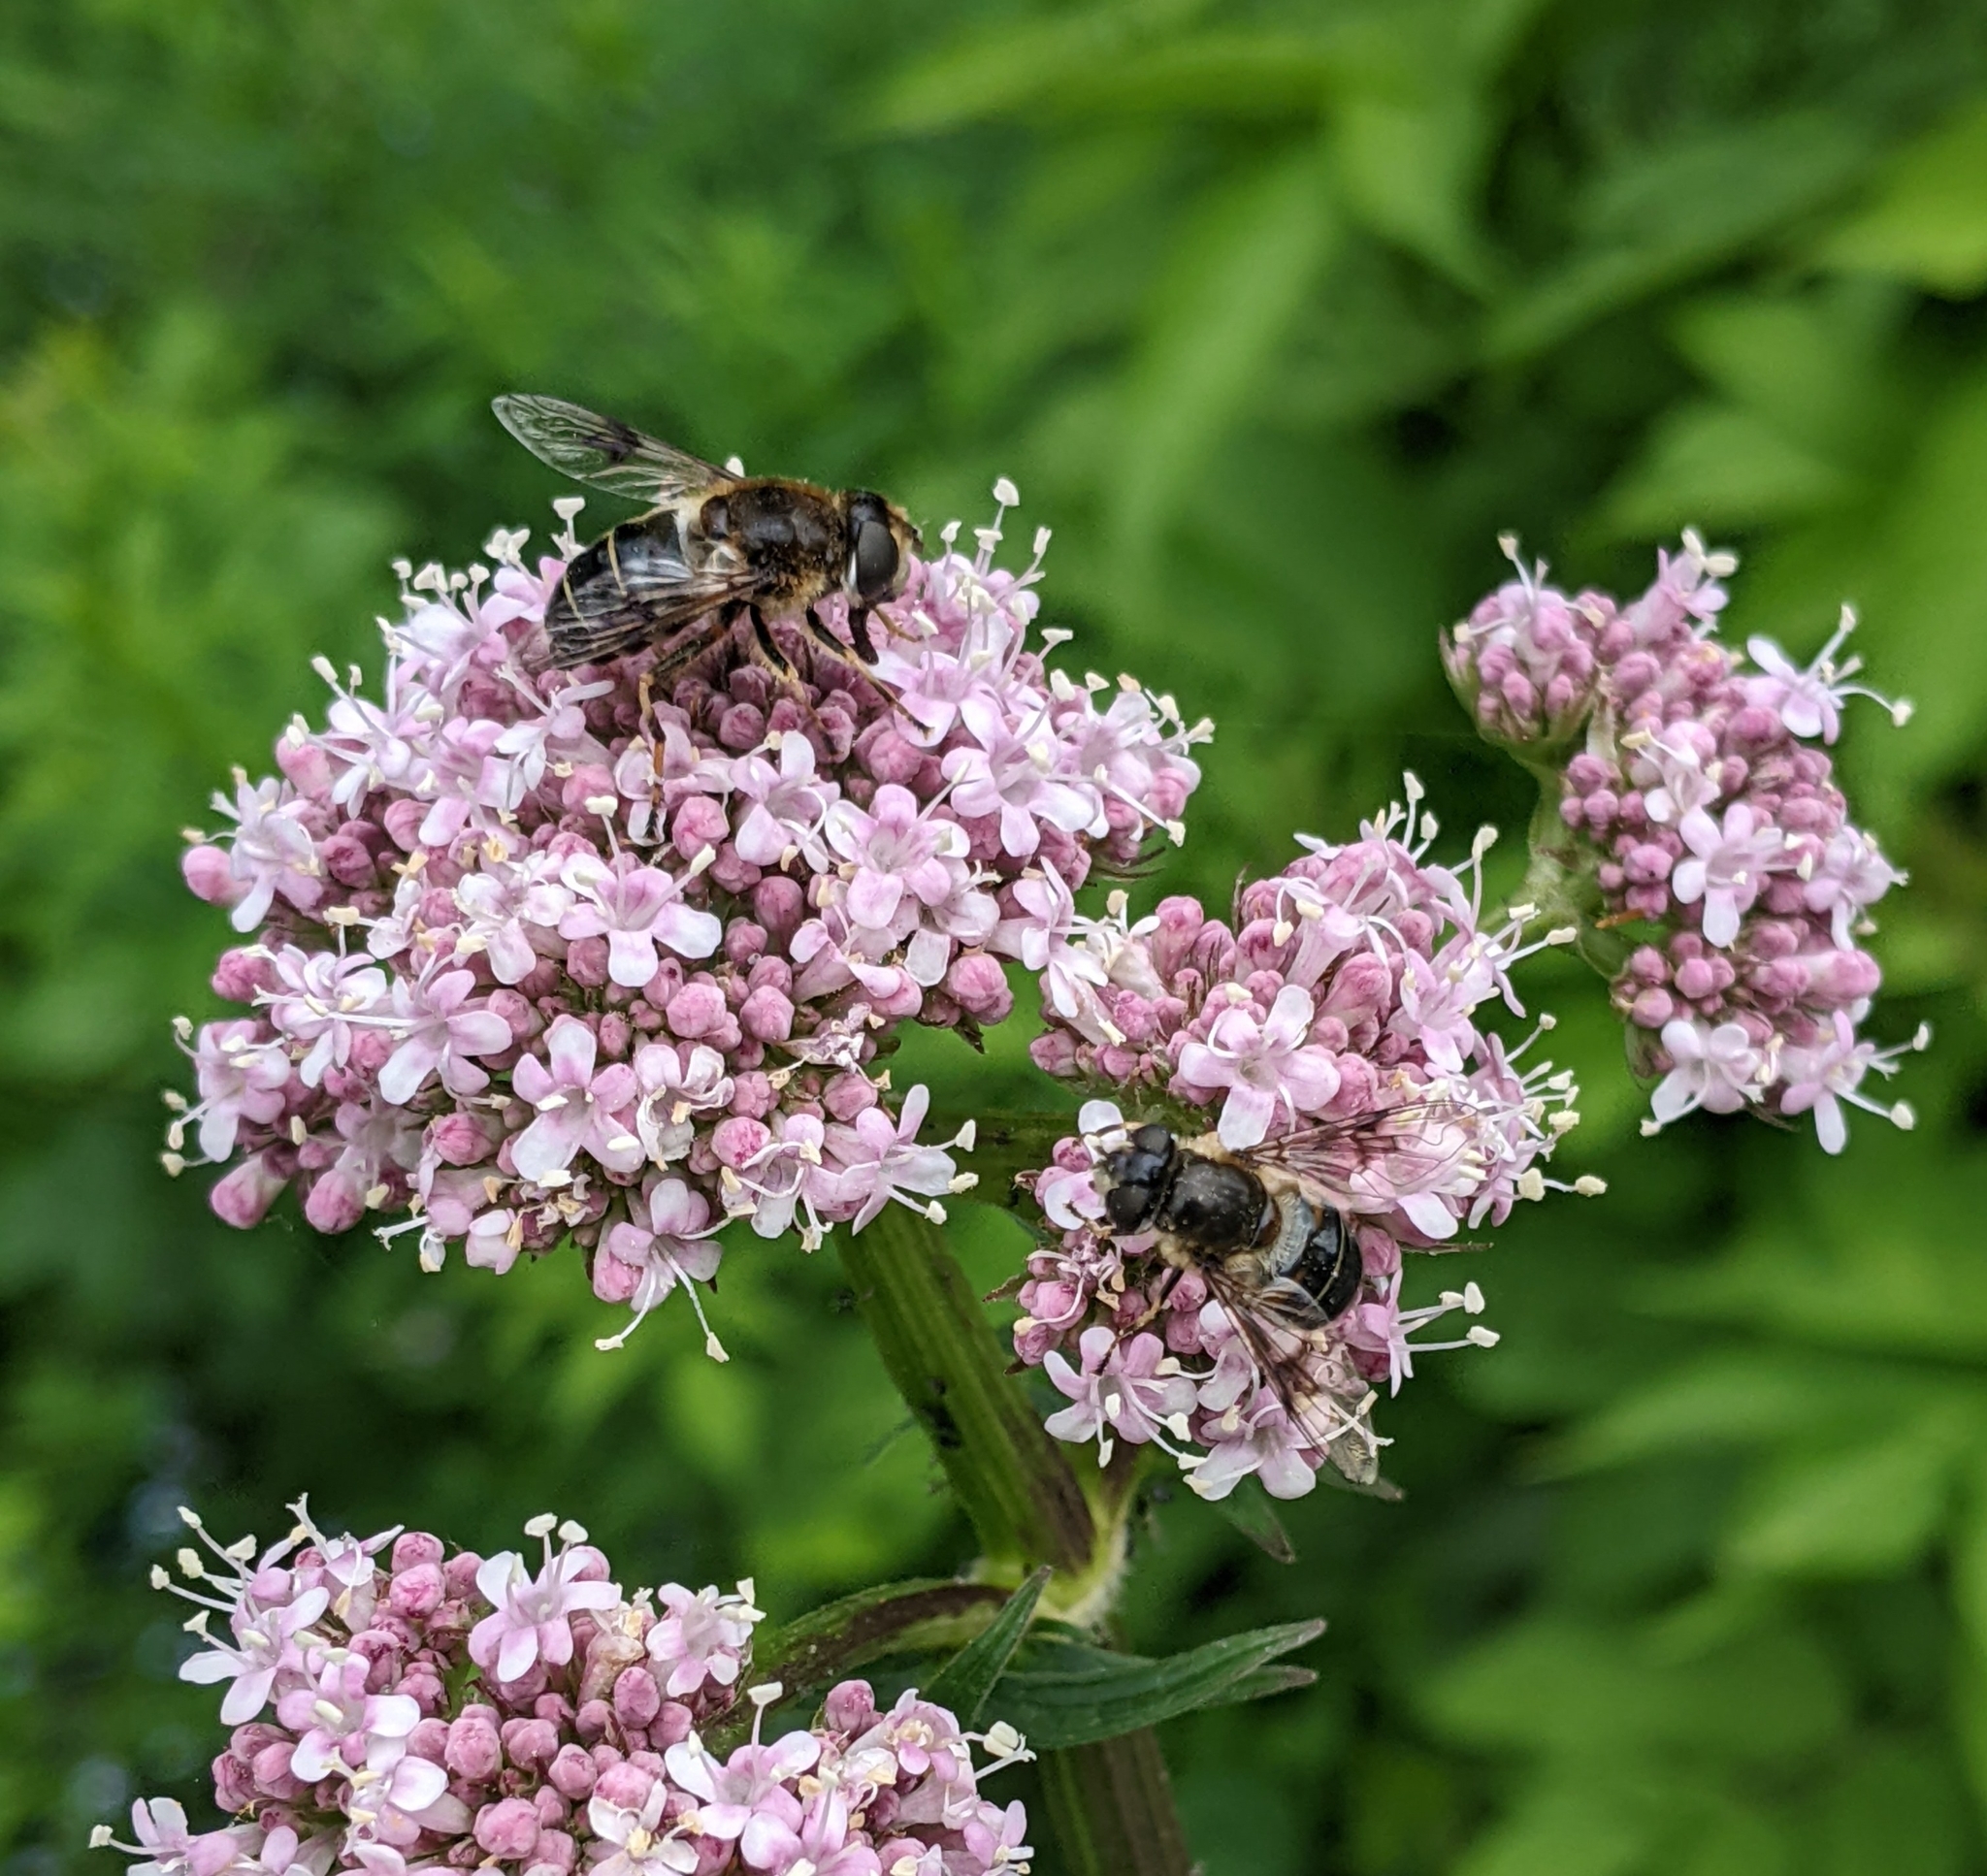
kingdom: Animalia
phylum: Arthropoda
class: Insecta
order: Diptera
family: Syrphidae
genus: Eristalis
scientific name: Eristalis rupium
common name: Hover fly
